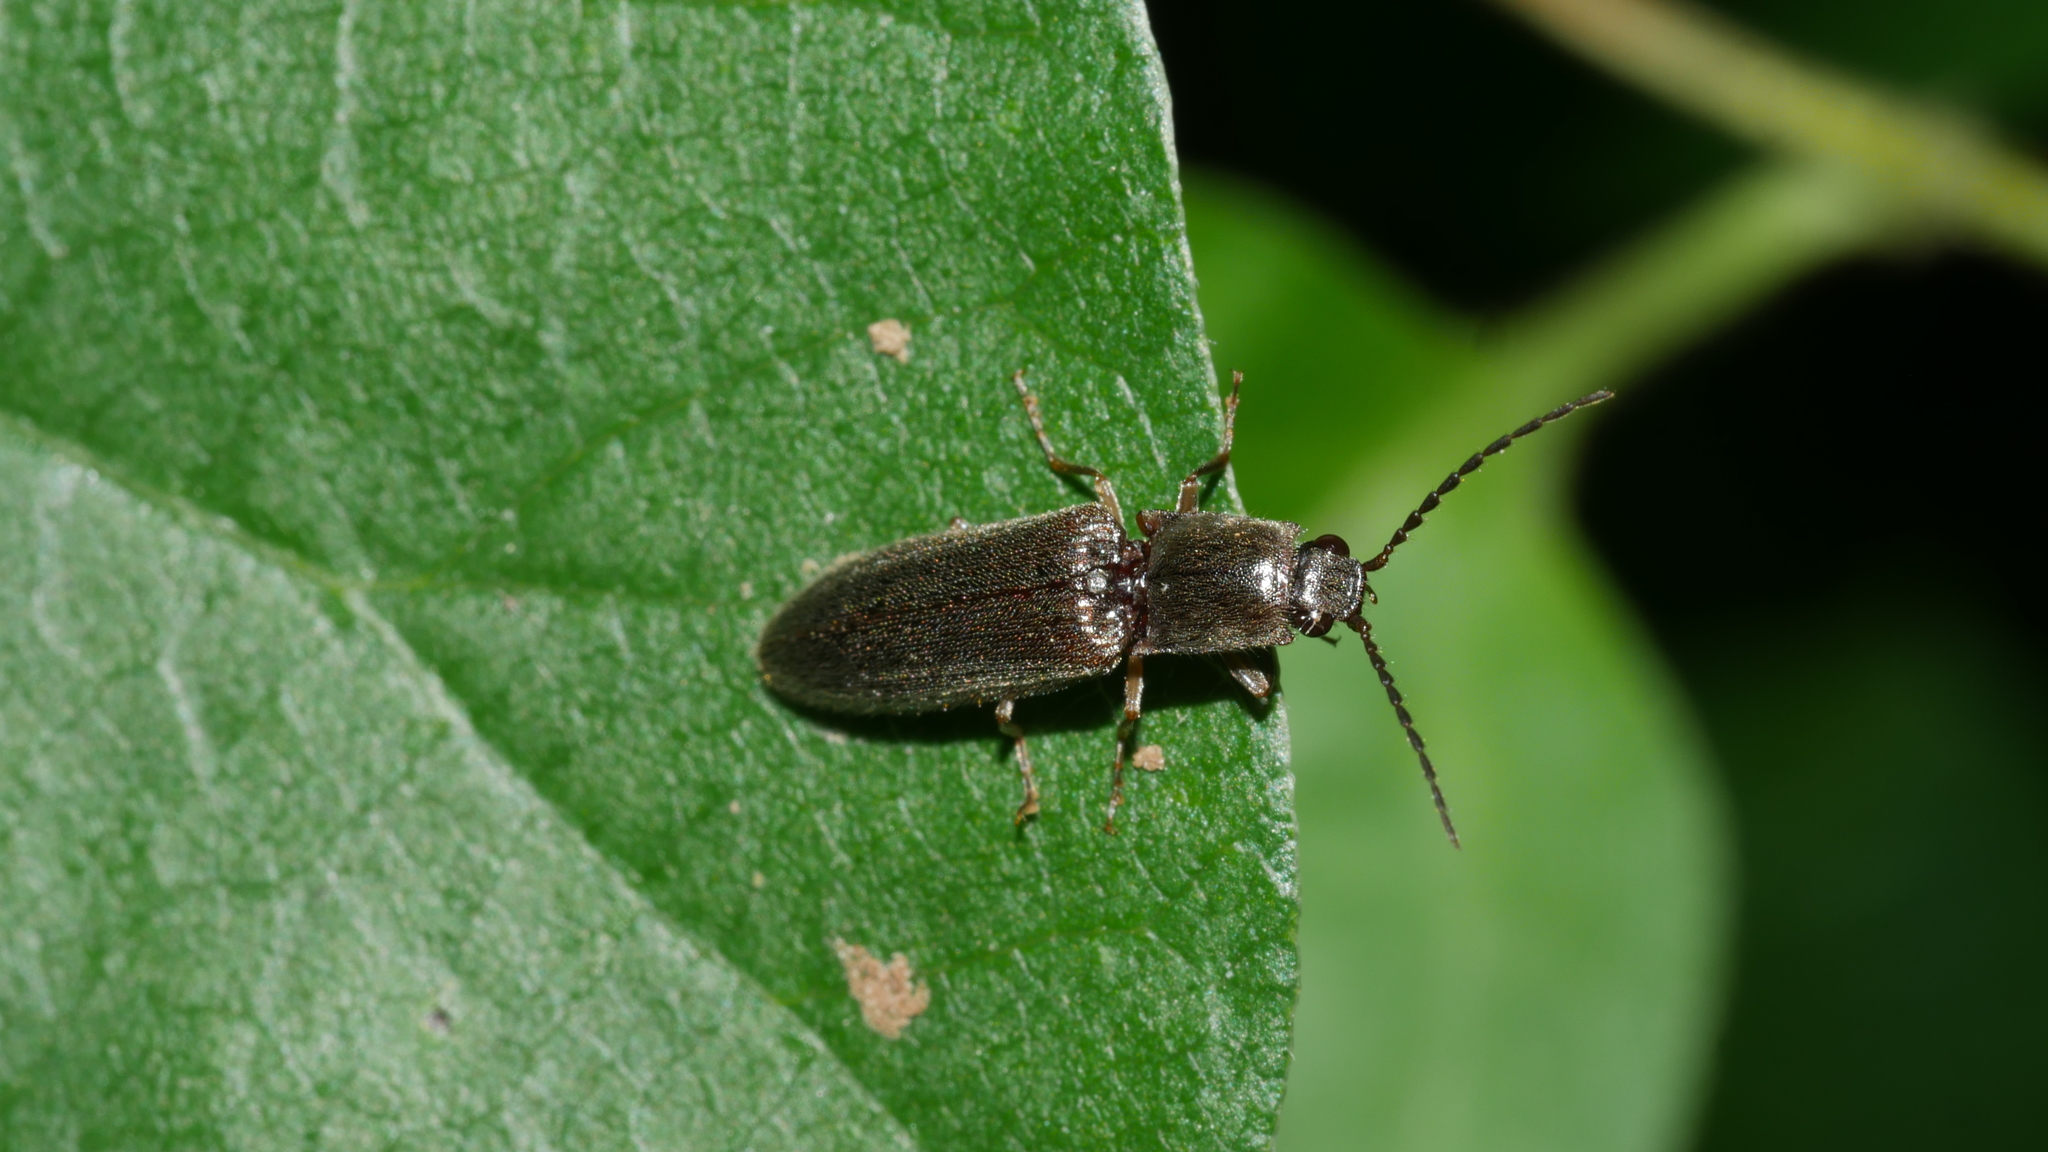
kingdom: Animalia
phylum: Arthropoda
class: Insecta
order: Coleoptera
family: Elateridae
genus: Athous
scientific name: Athous brightwelli
